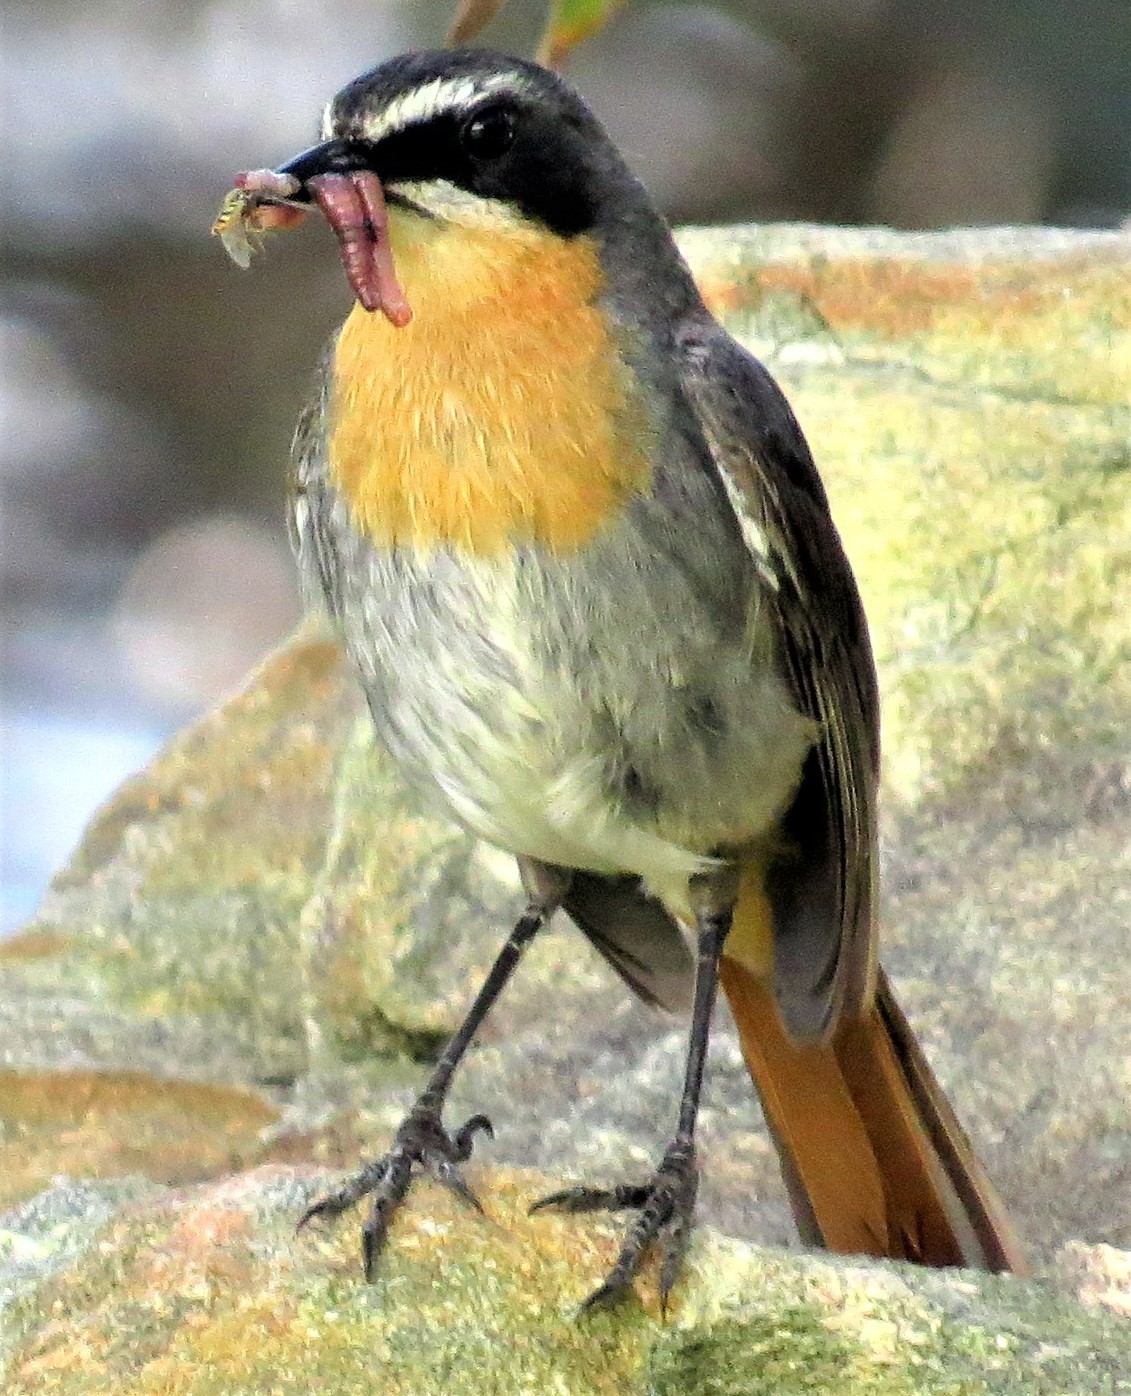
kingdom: Animalia
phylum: Chordata
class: Aves
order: Passeriformes
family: Muscicapidae
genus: Cossypha
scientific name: Cossypha caffra
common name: Cape robin-chat
